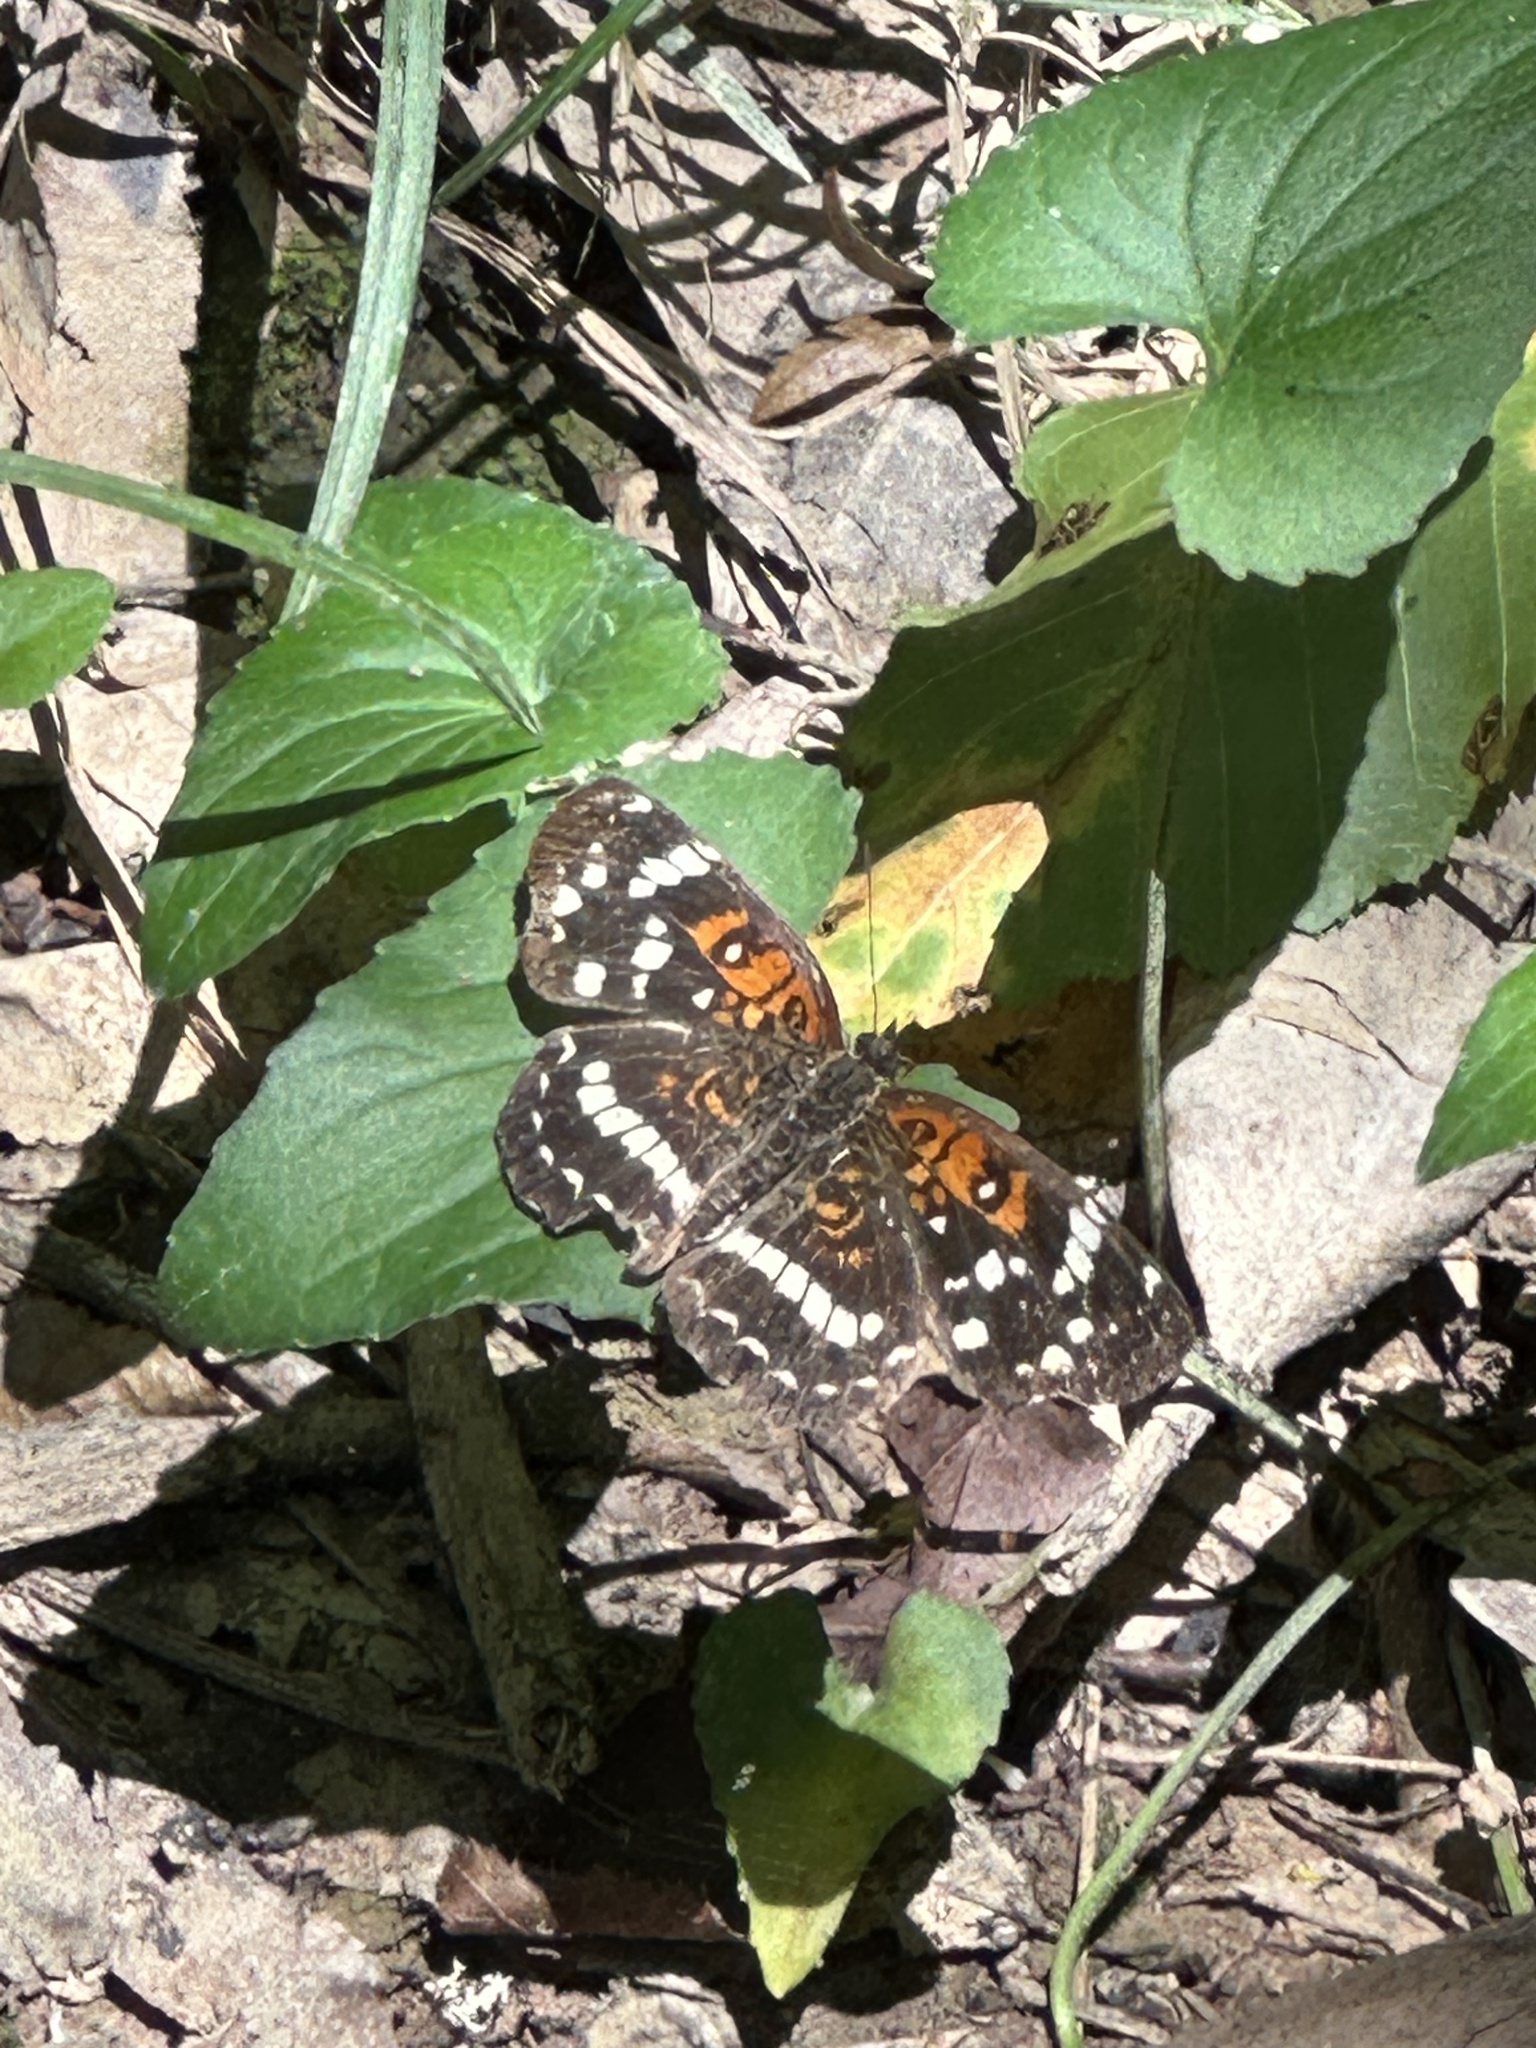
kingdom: Animalia
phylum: Arthropoda
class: Insecta
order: Lepidoptera
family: Nymphalidae
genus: Anthanassa
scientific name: Anthanassa taxana
